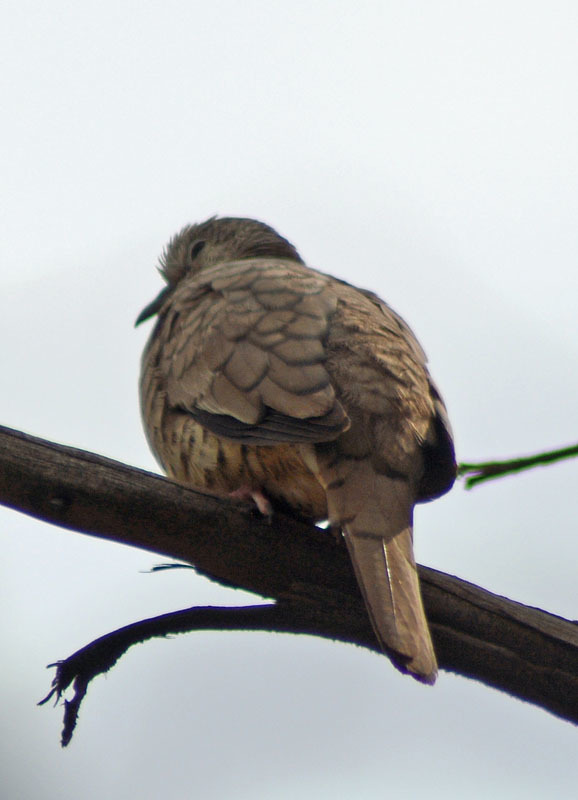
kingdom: Animalia
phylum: Chordata
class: Aves
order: Columbiformes
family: Columbidae
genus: Columbina
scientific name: Columbina inca
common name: Inca dove
